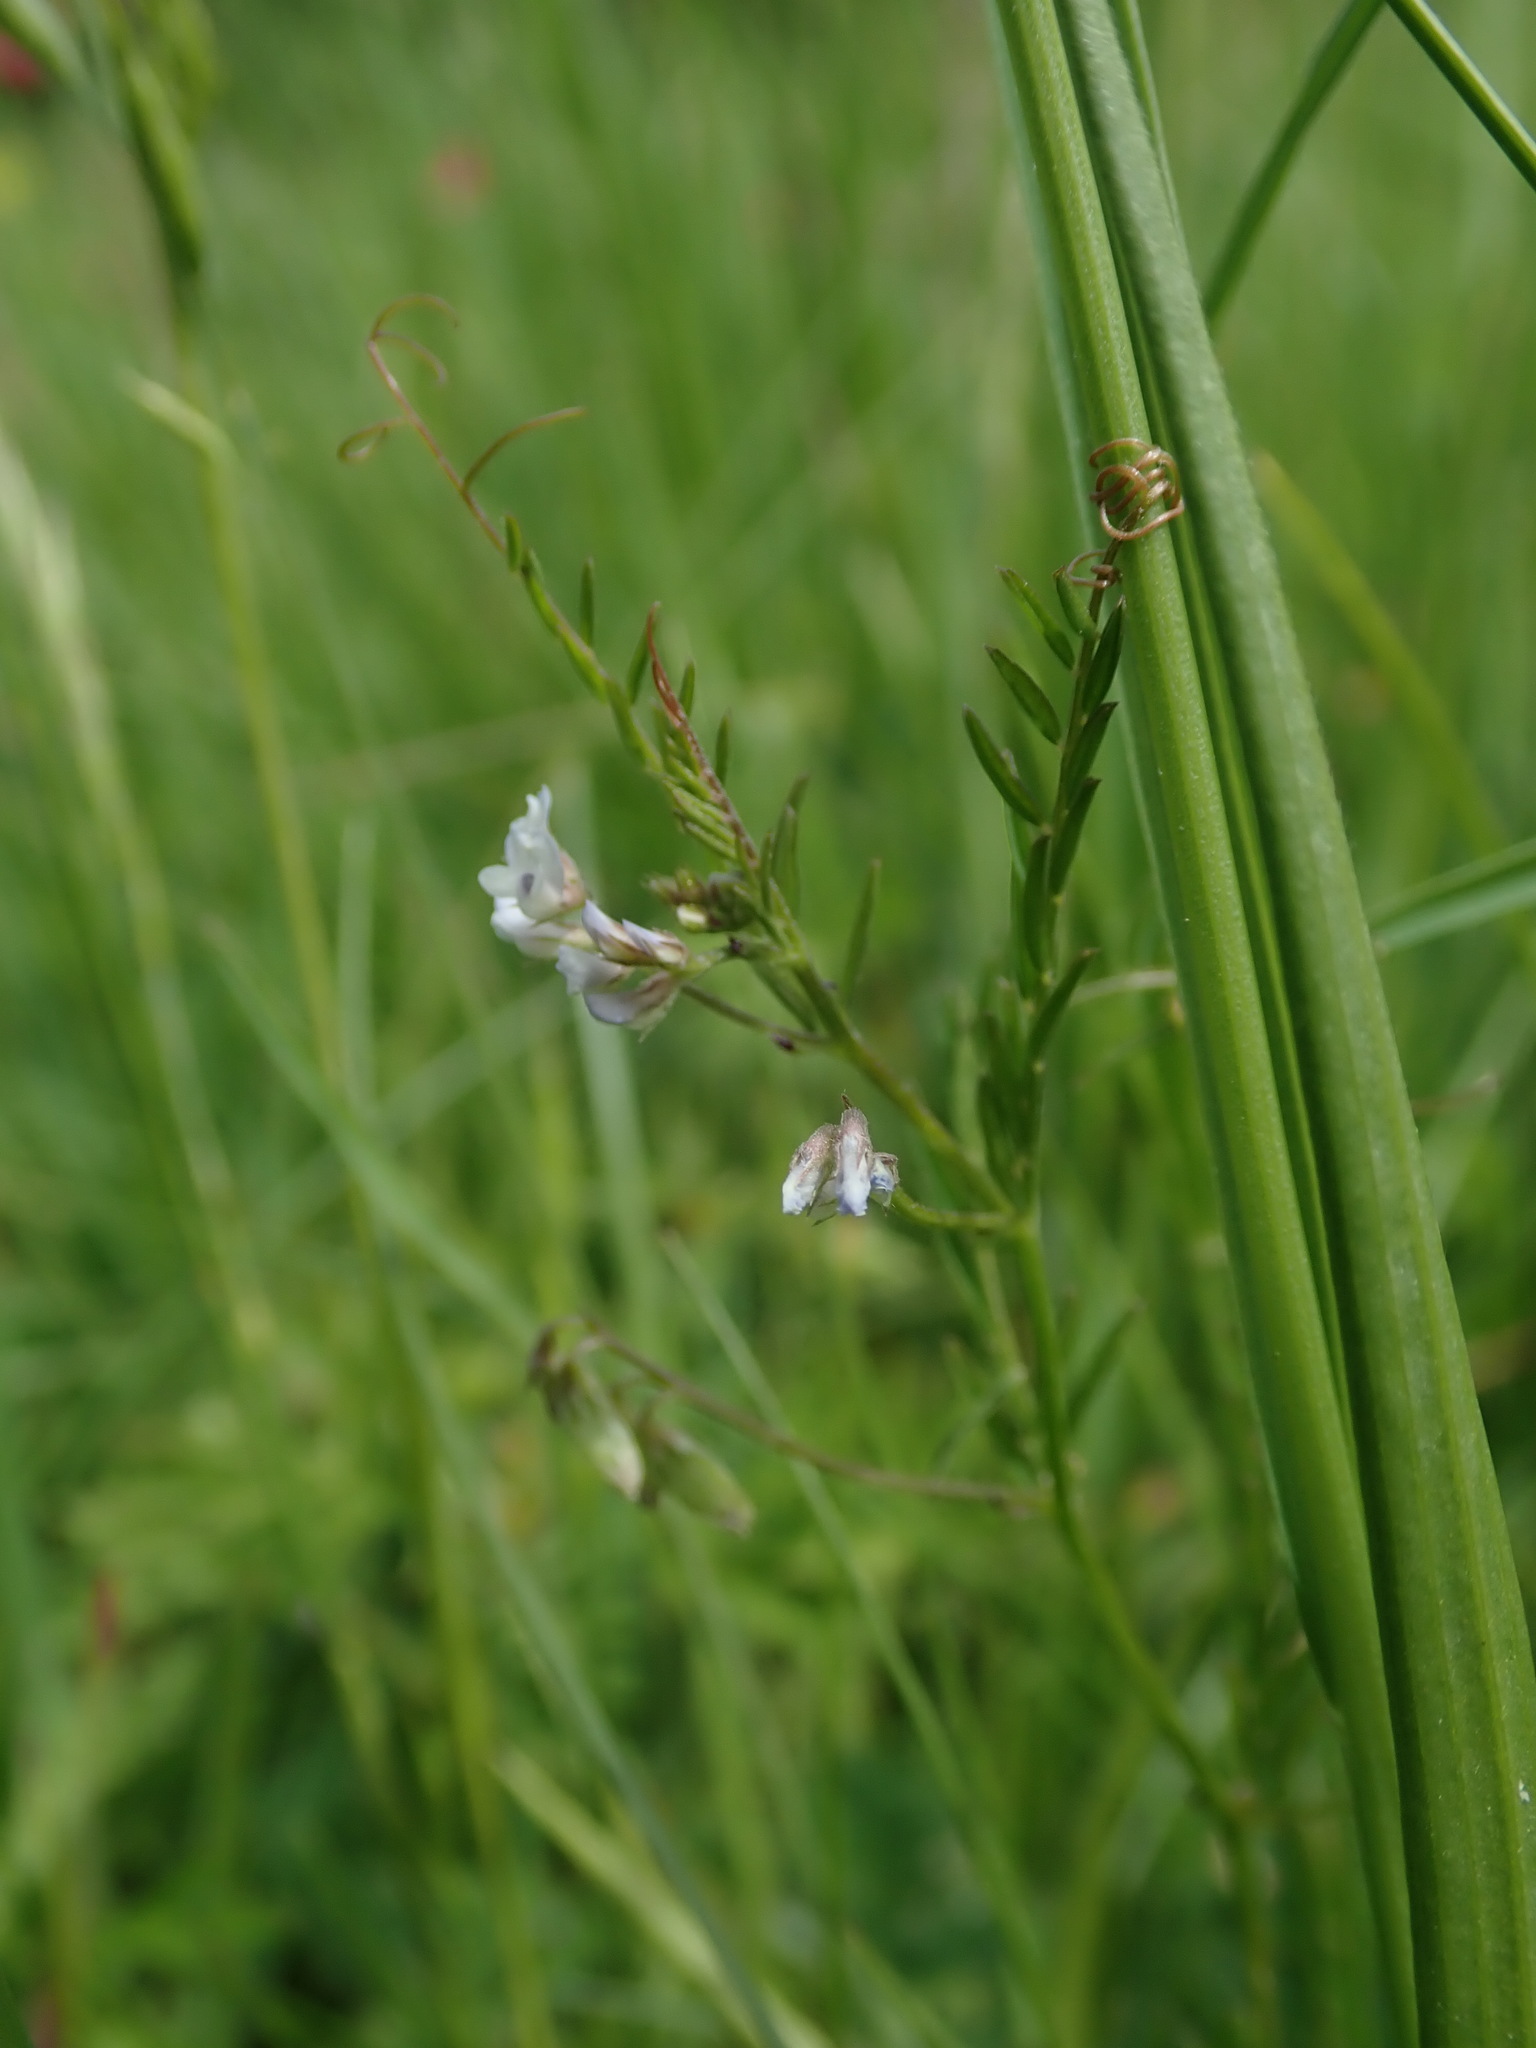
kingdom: Plantae
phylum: Tracheophyta
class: Magnoliopsida
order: Fabales
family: Fabaceae
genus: Vicia
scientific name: Vicia hirsuta
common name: Tiny vetch
